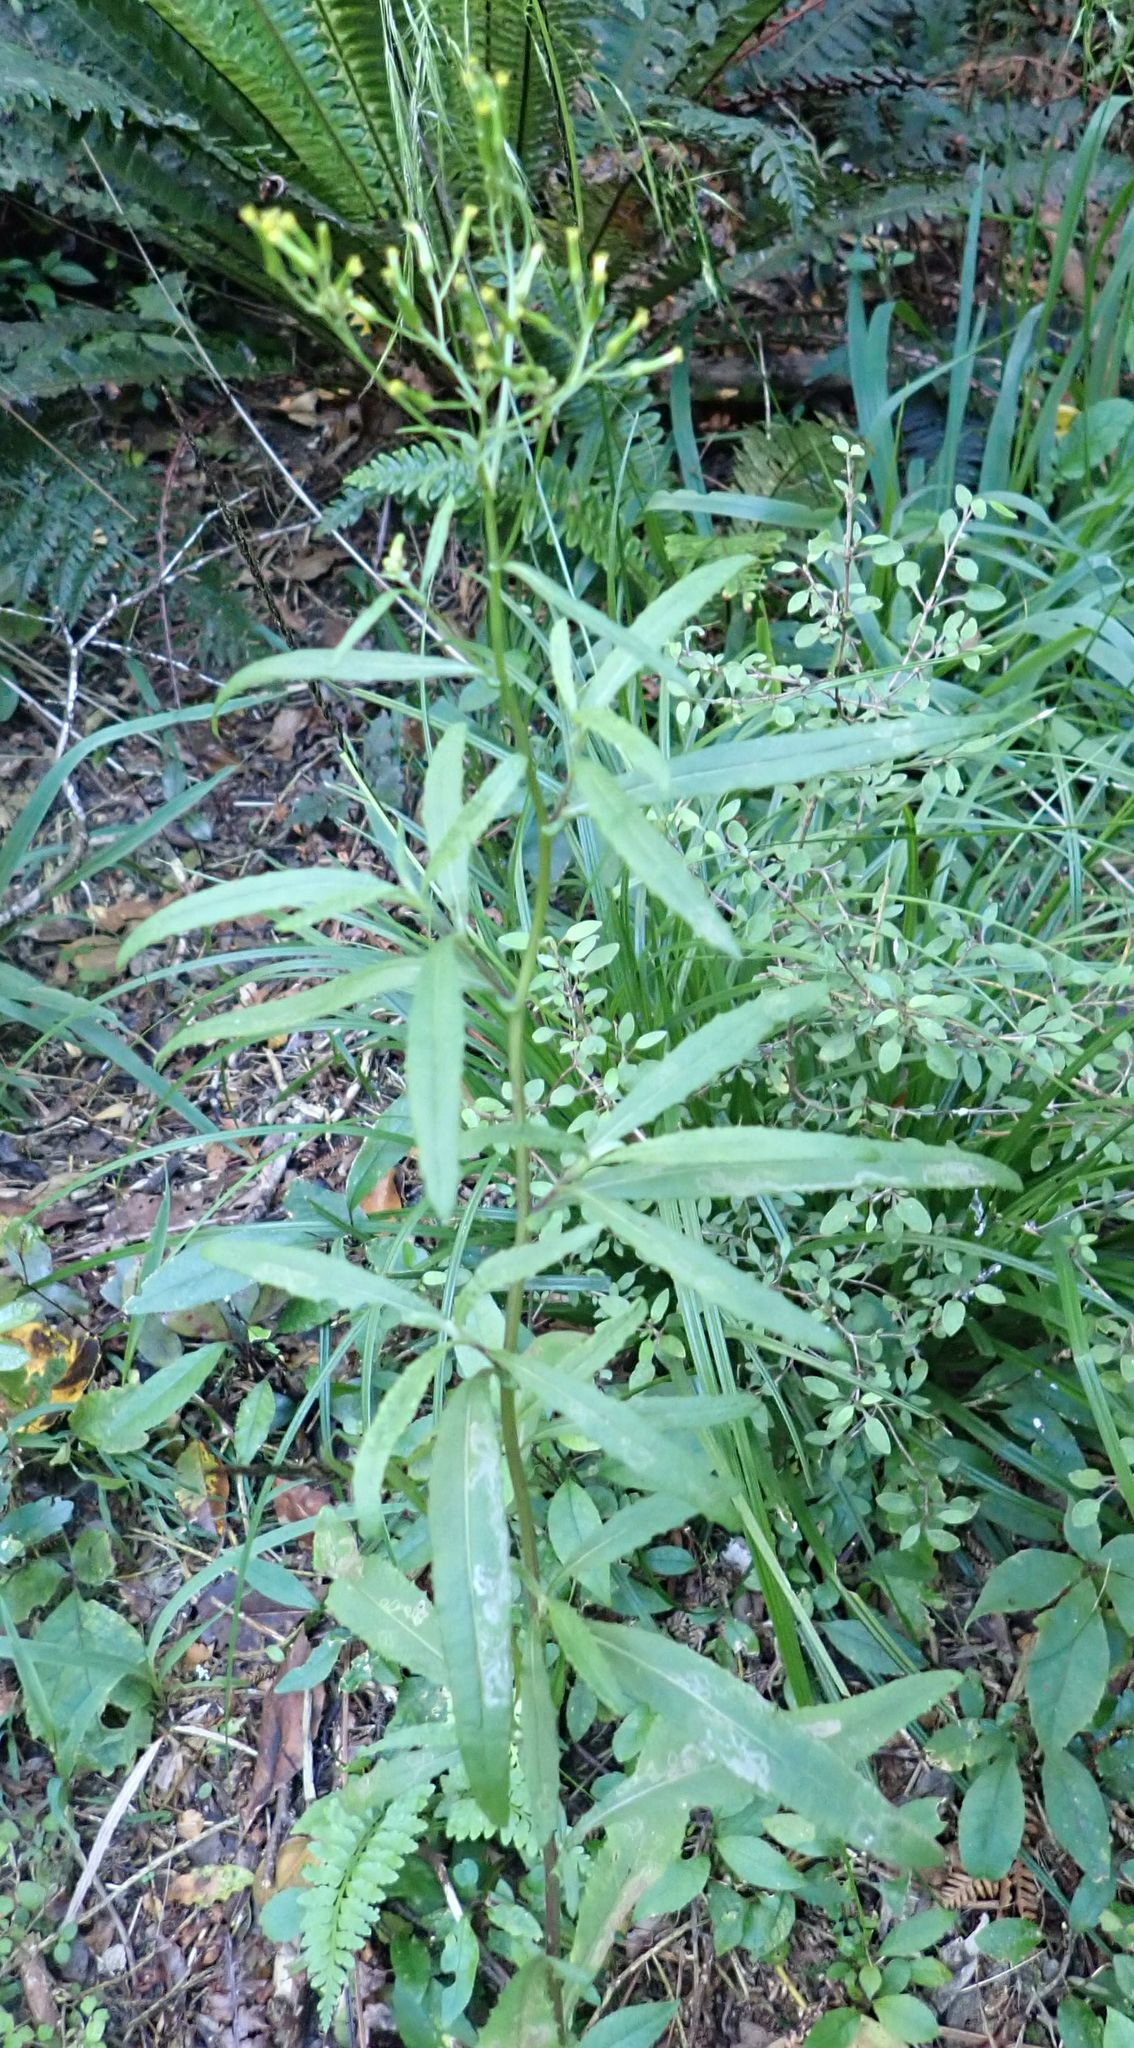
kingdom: Plantae
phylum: Tracheophyta
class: Magnoliopsida
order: Asterales
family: Asteraceae
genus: Senecio
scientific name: Senecio minimus
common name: Toothed fireweed
